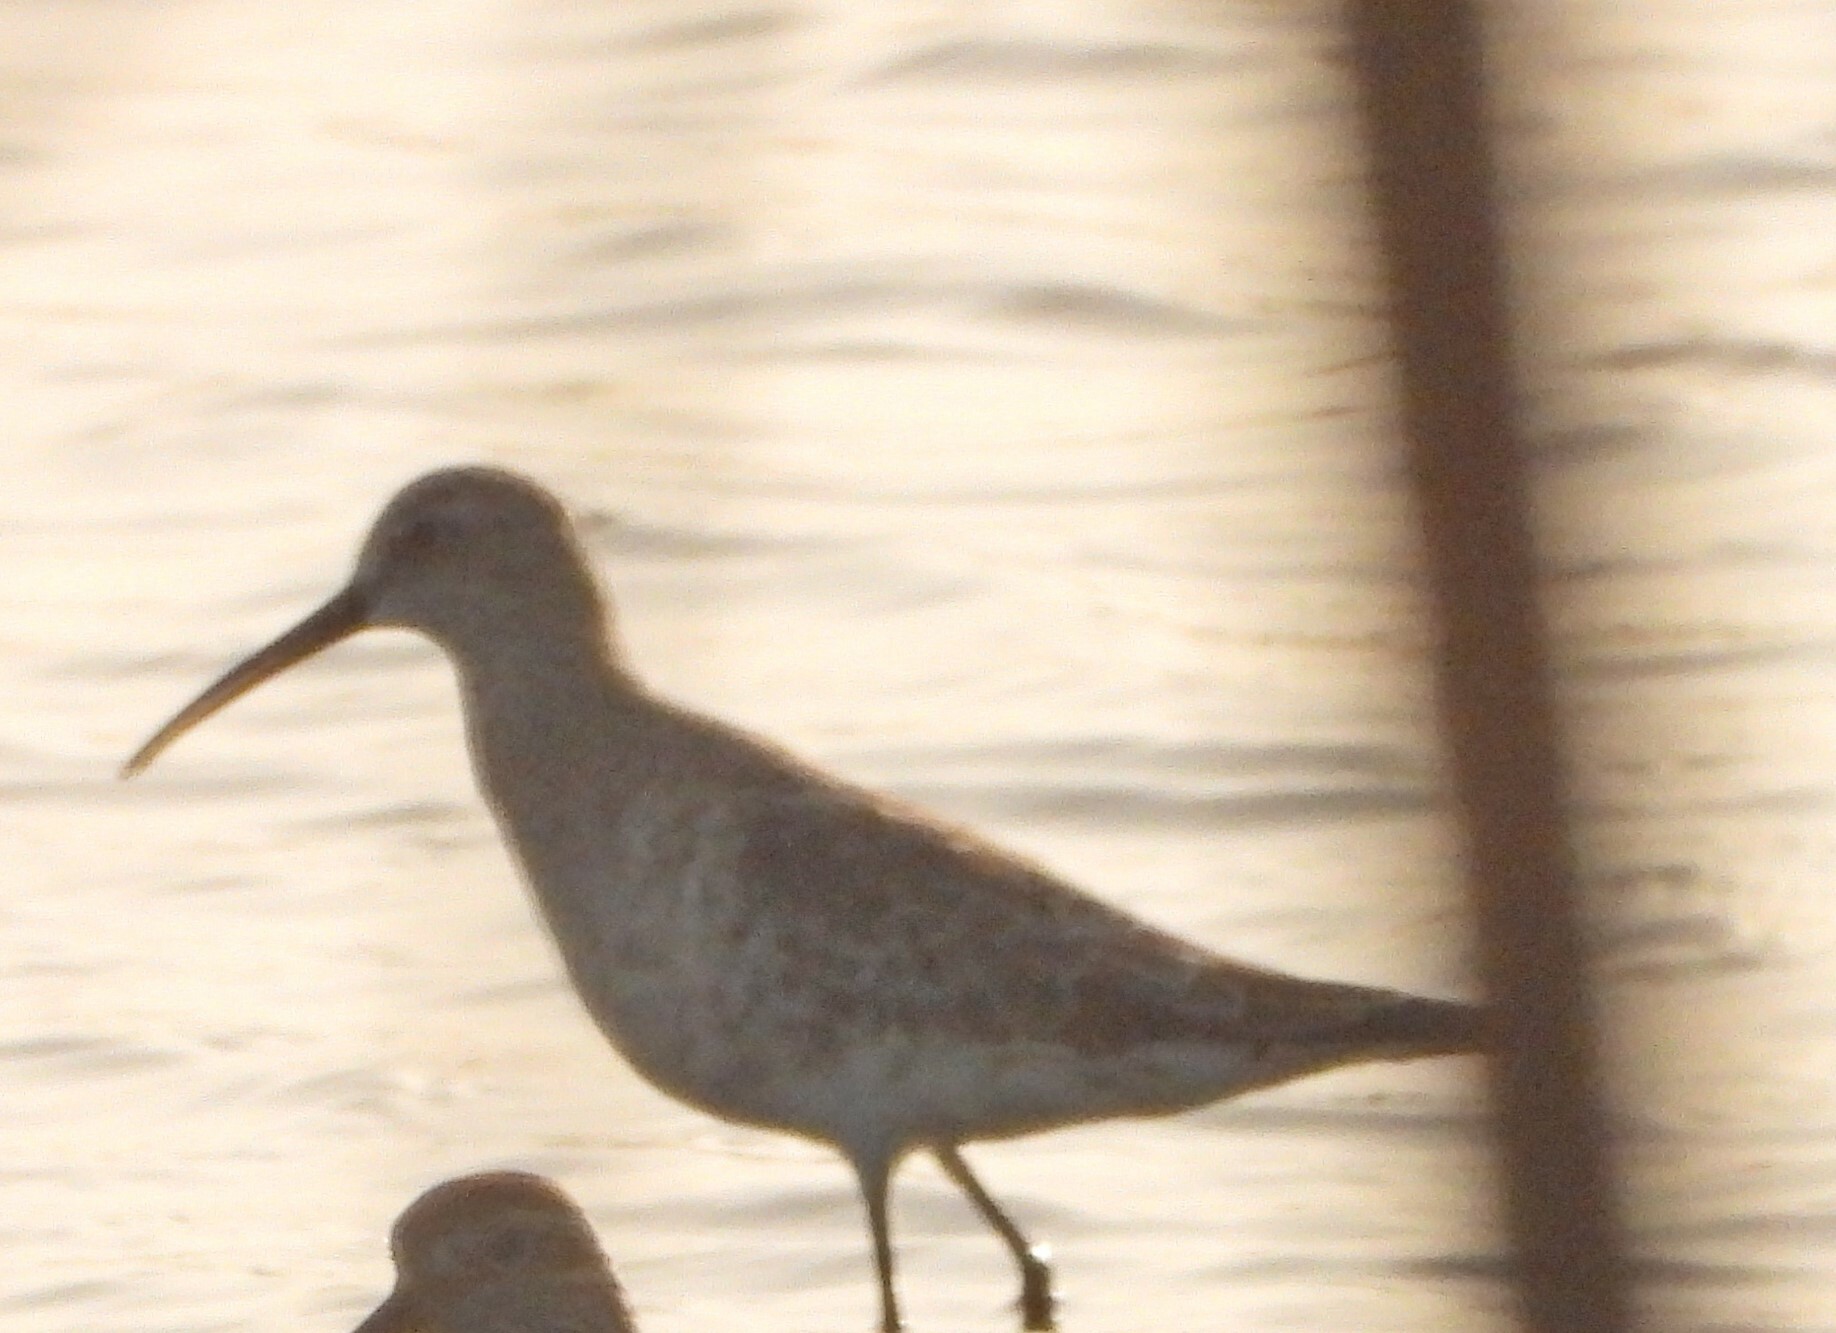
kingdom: Animalia
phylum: Chordata
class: Aves
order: Charadriiformes
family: Scolopacidae
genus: Calidris
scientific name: Calidris ferruginea
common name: Curlew sandpiper
